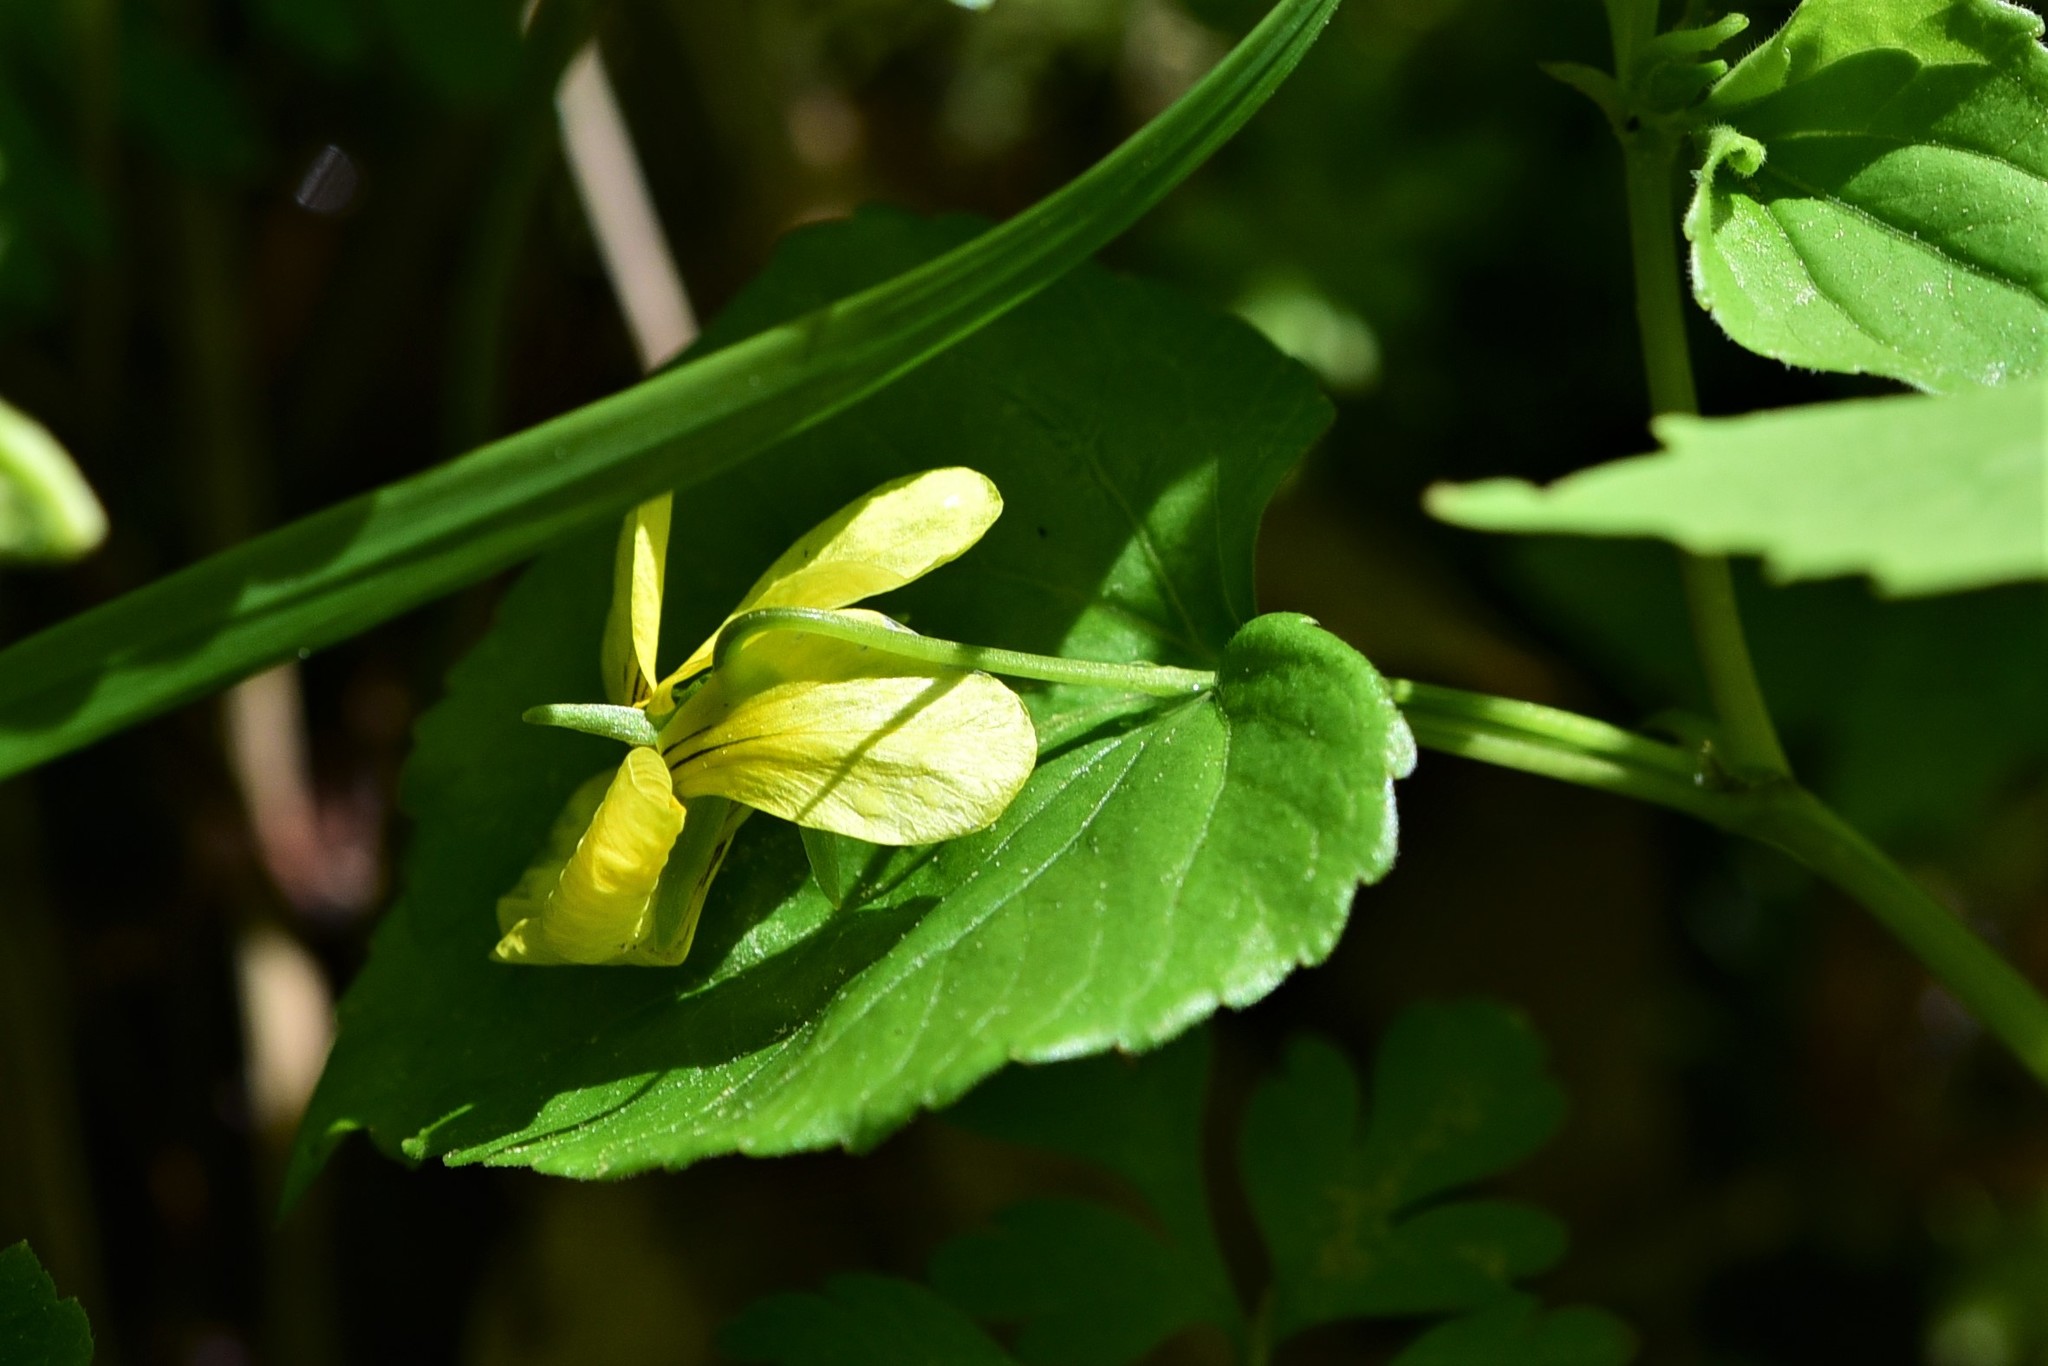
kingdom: Plantae
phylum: Tracheophyta
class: Magnoliopsida
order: Malpighiales
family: Violaceae
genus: Viola
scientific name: Viola glabella
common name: Stream violet
